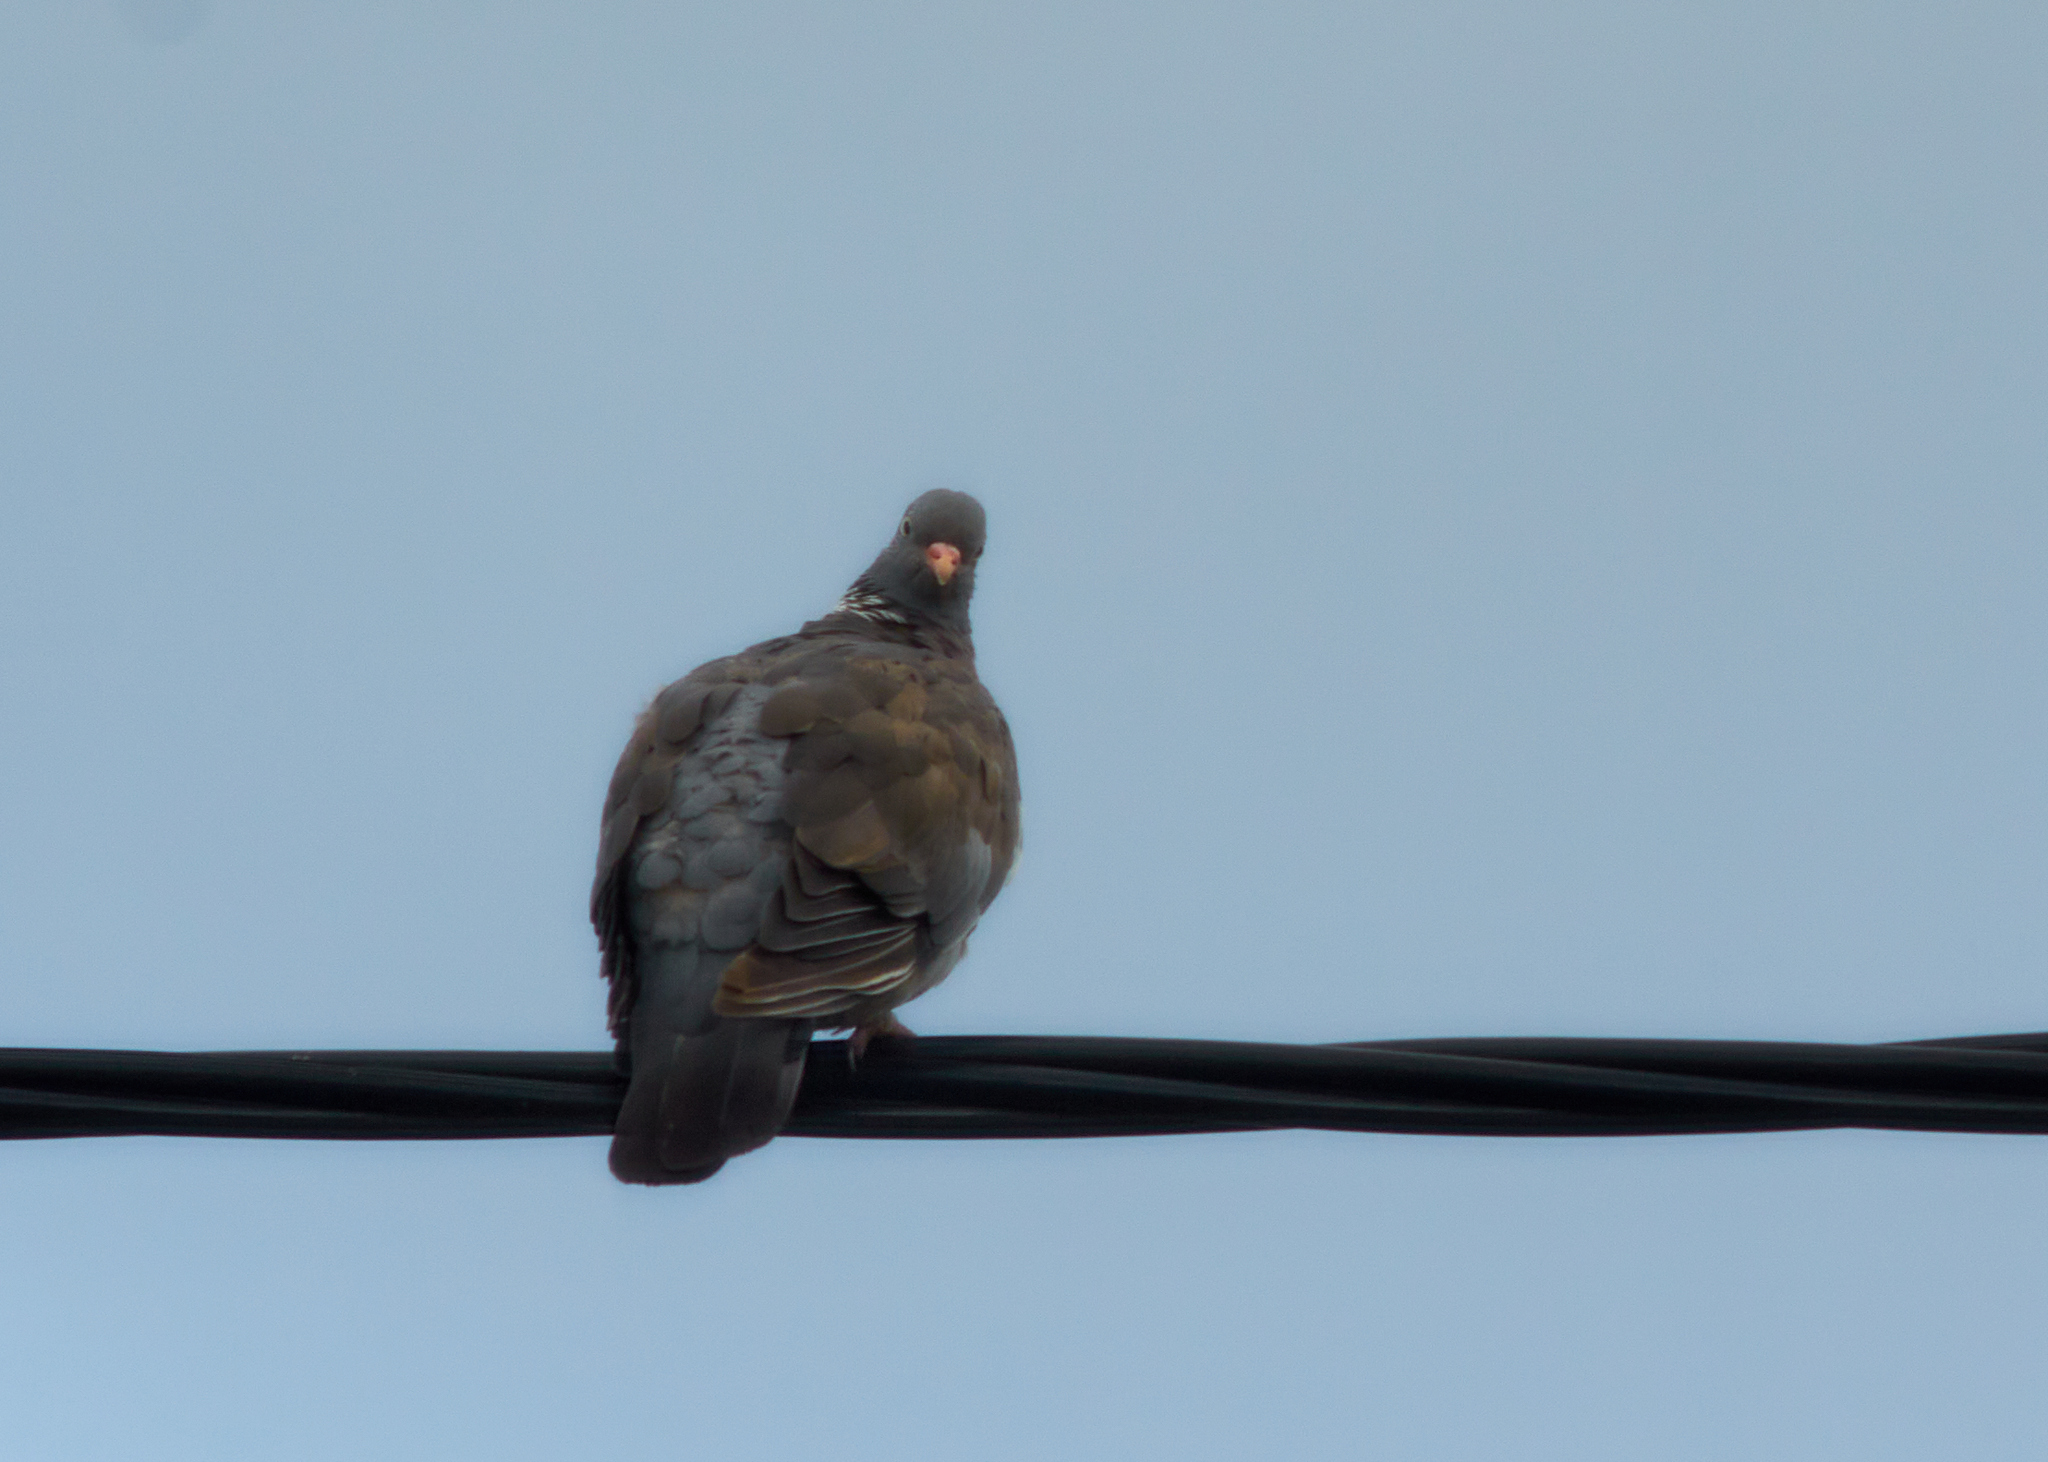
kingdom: Animalia
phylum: Chordata
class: Aves
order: Columbiformes
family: Columbidae
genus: Columba
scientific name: Columba palumbus
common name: Common wood pigeon
